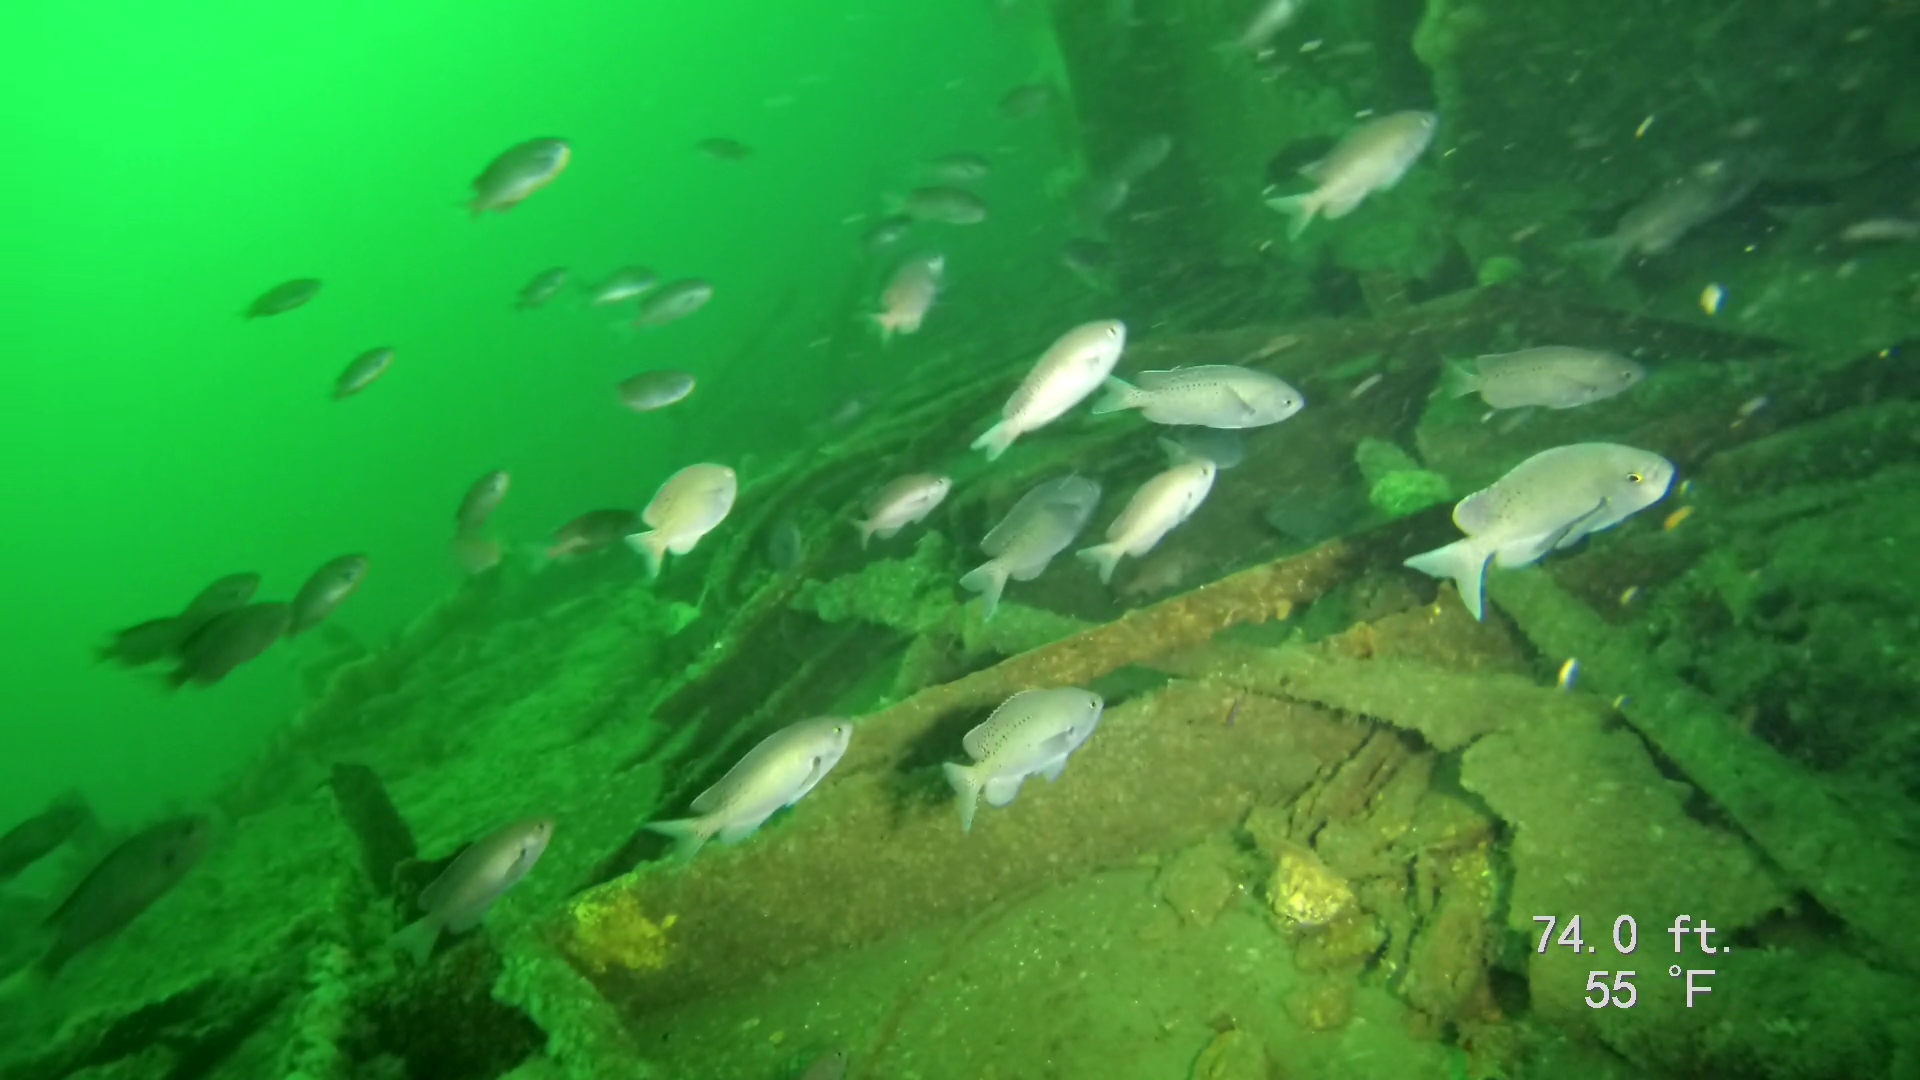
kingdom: Animalia
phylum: Chordata
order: Perciformes
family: Pomacentridae
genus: Chromis
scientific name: Chromis punctipinnis
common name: Blacksmith
